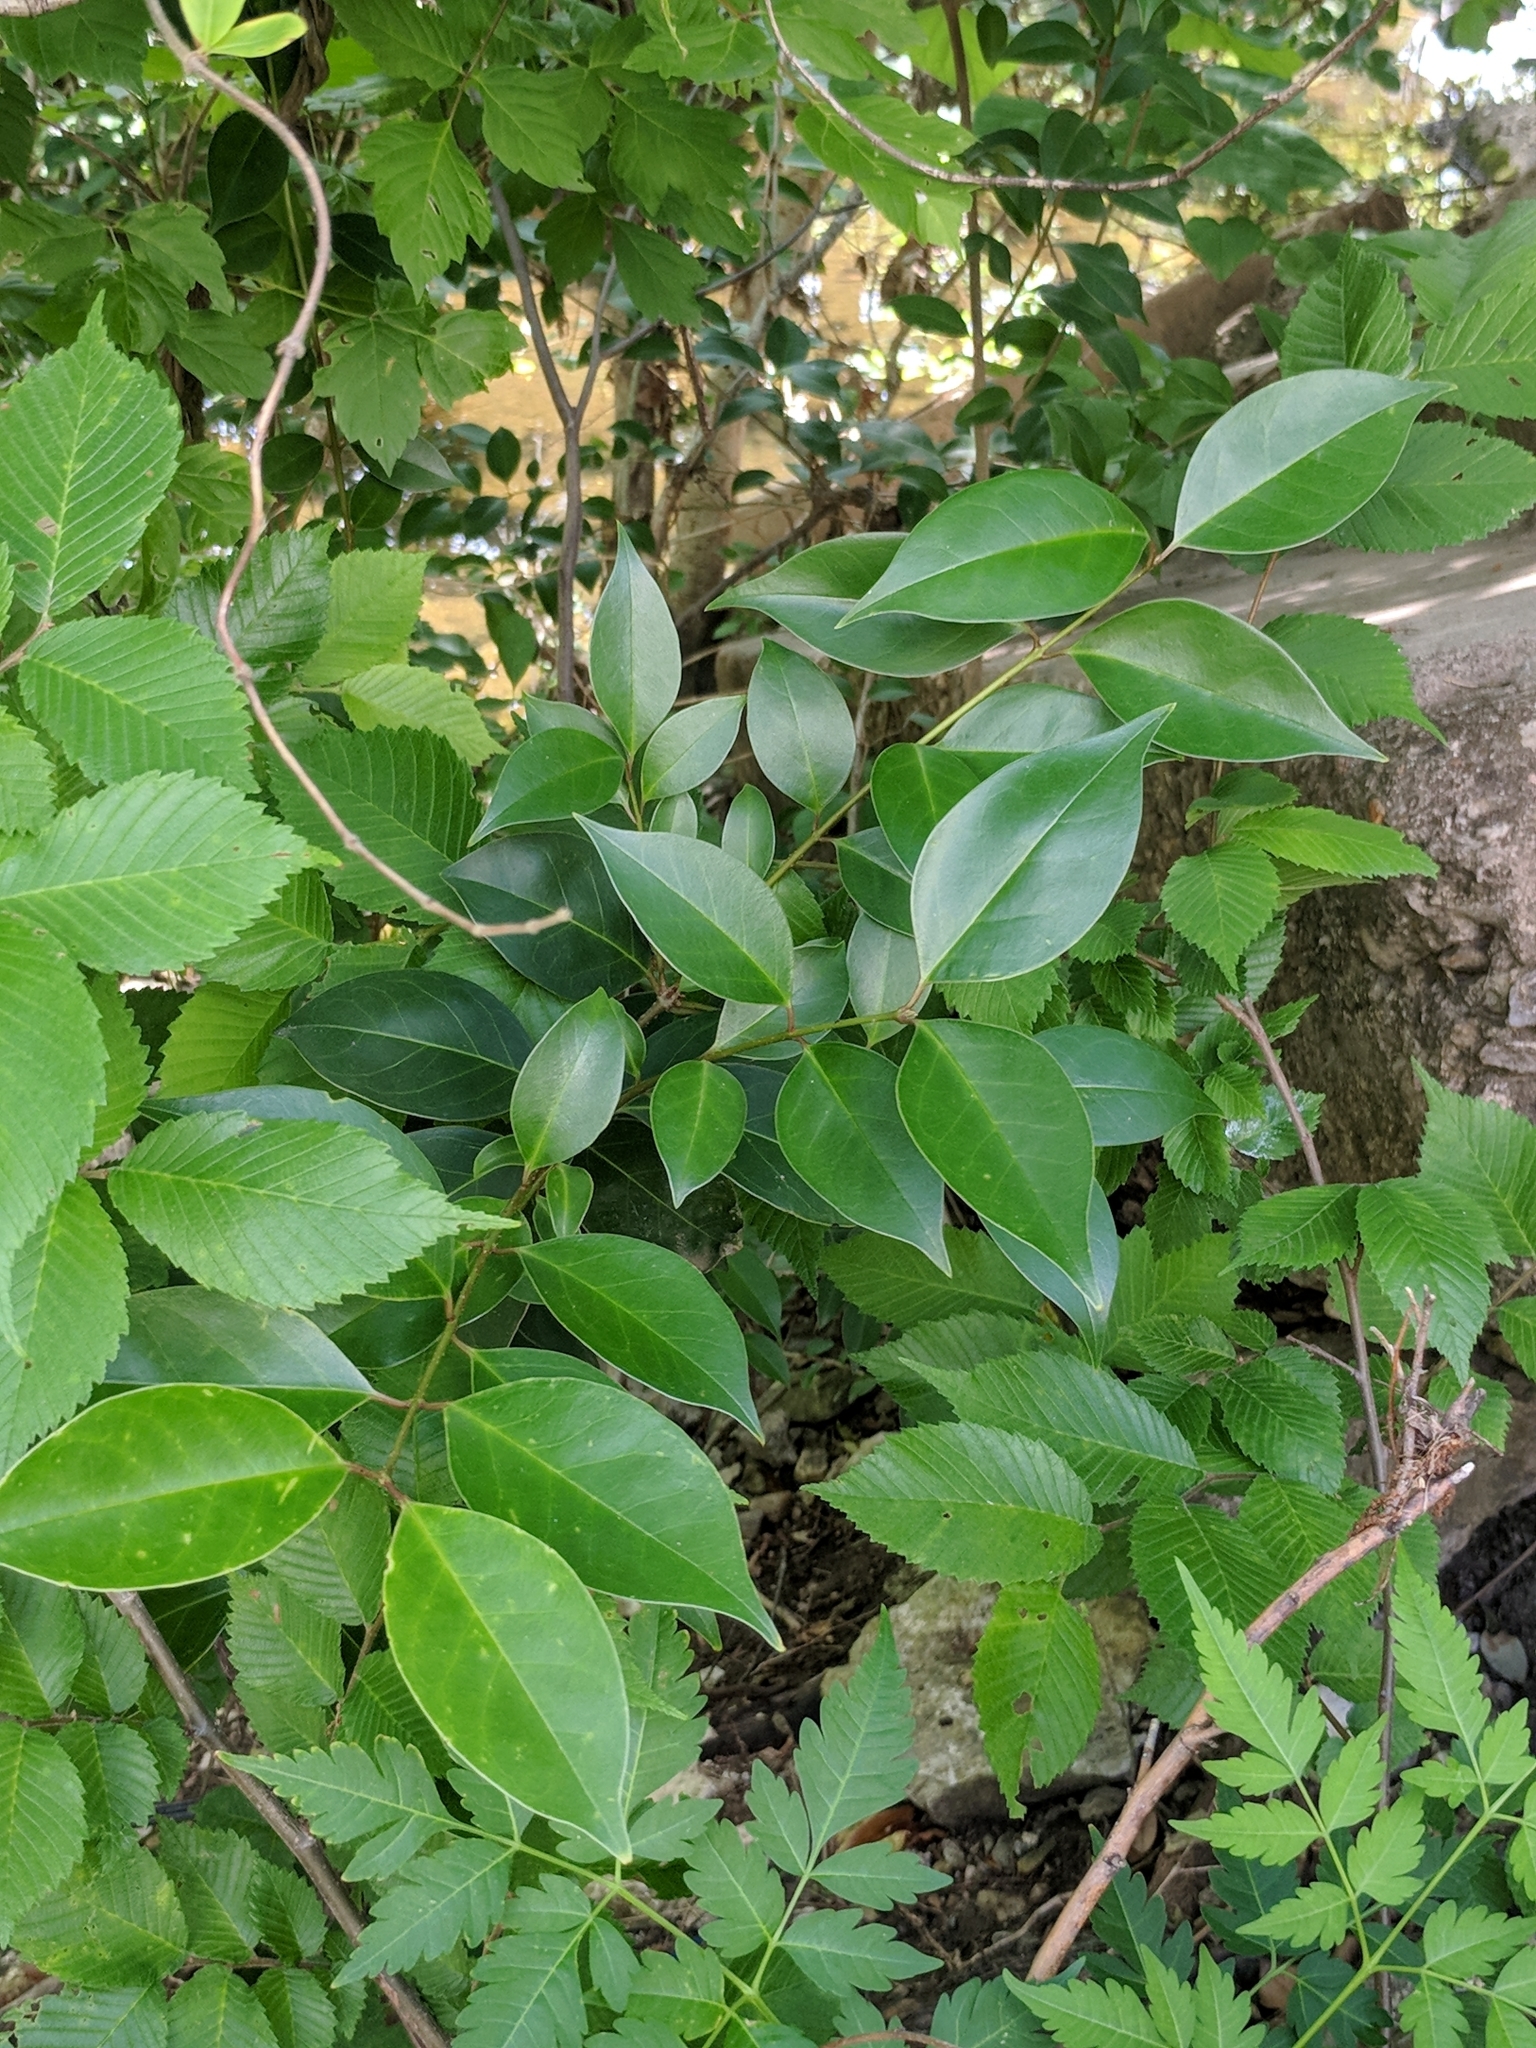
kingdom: Plantae
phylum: Tracheophyta
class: Magnoliopsida
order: Lamiales
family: Oleaceae
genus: Ligustrum
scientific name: Ligustrum lucidum
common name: Glossy privet
